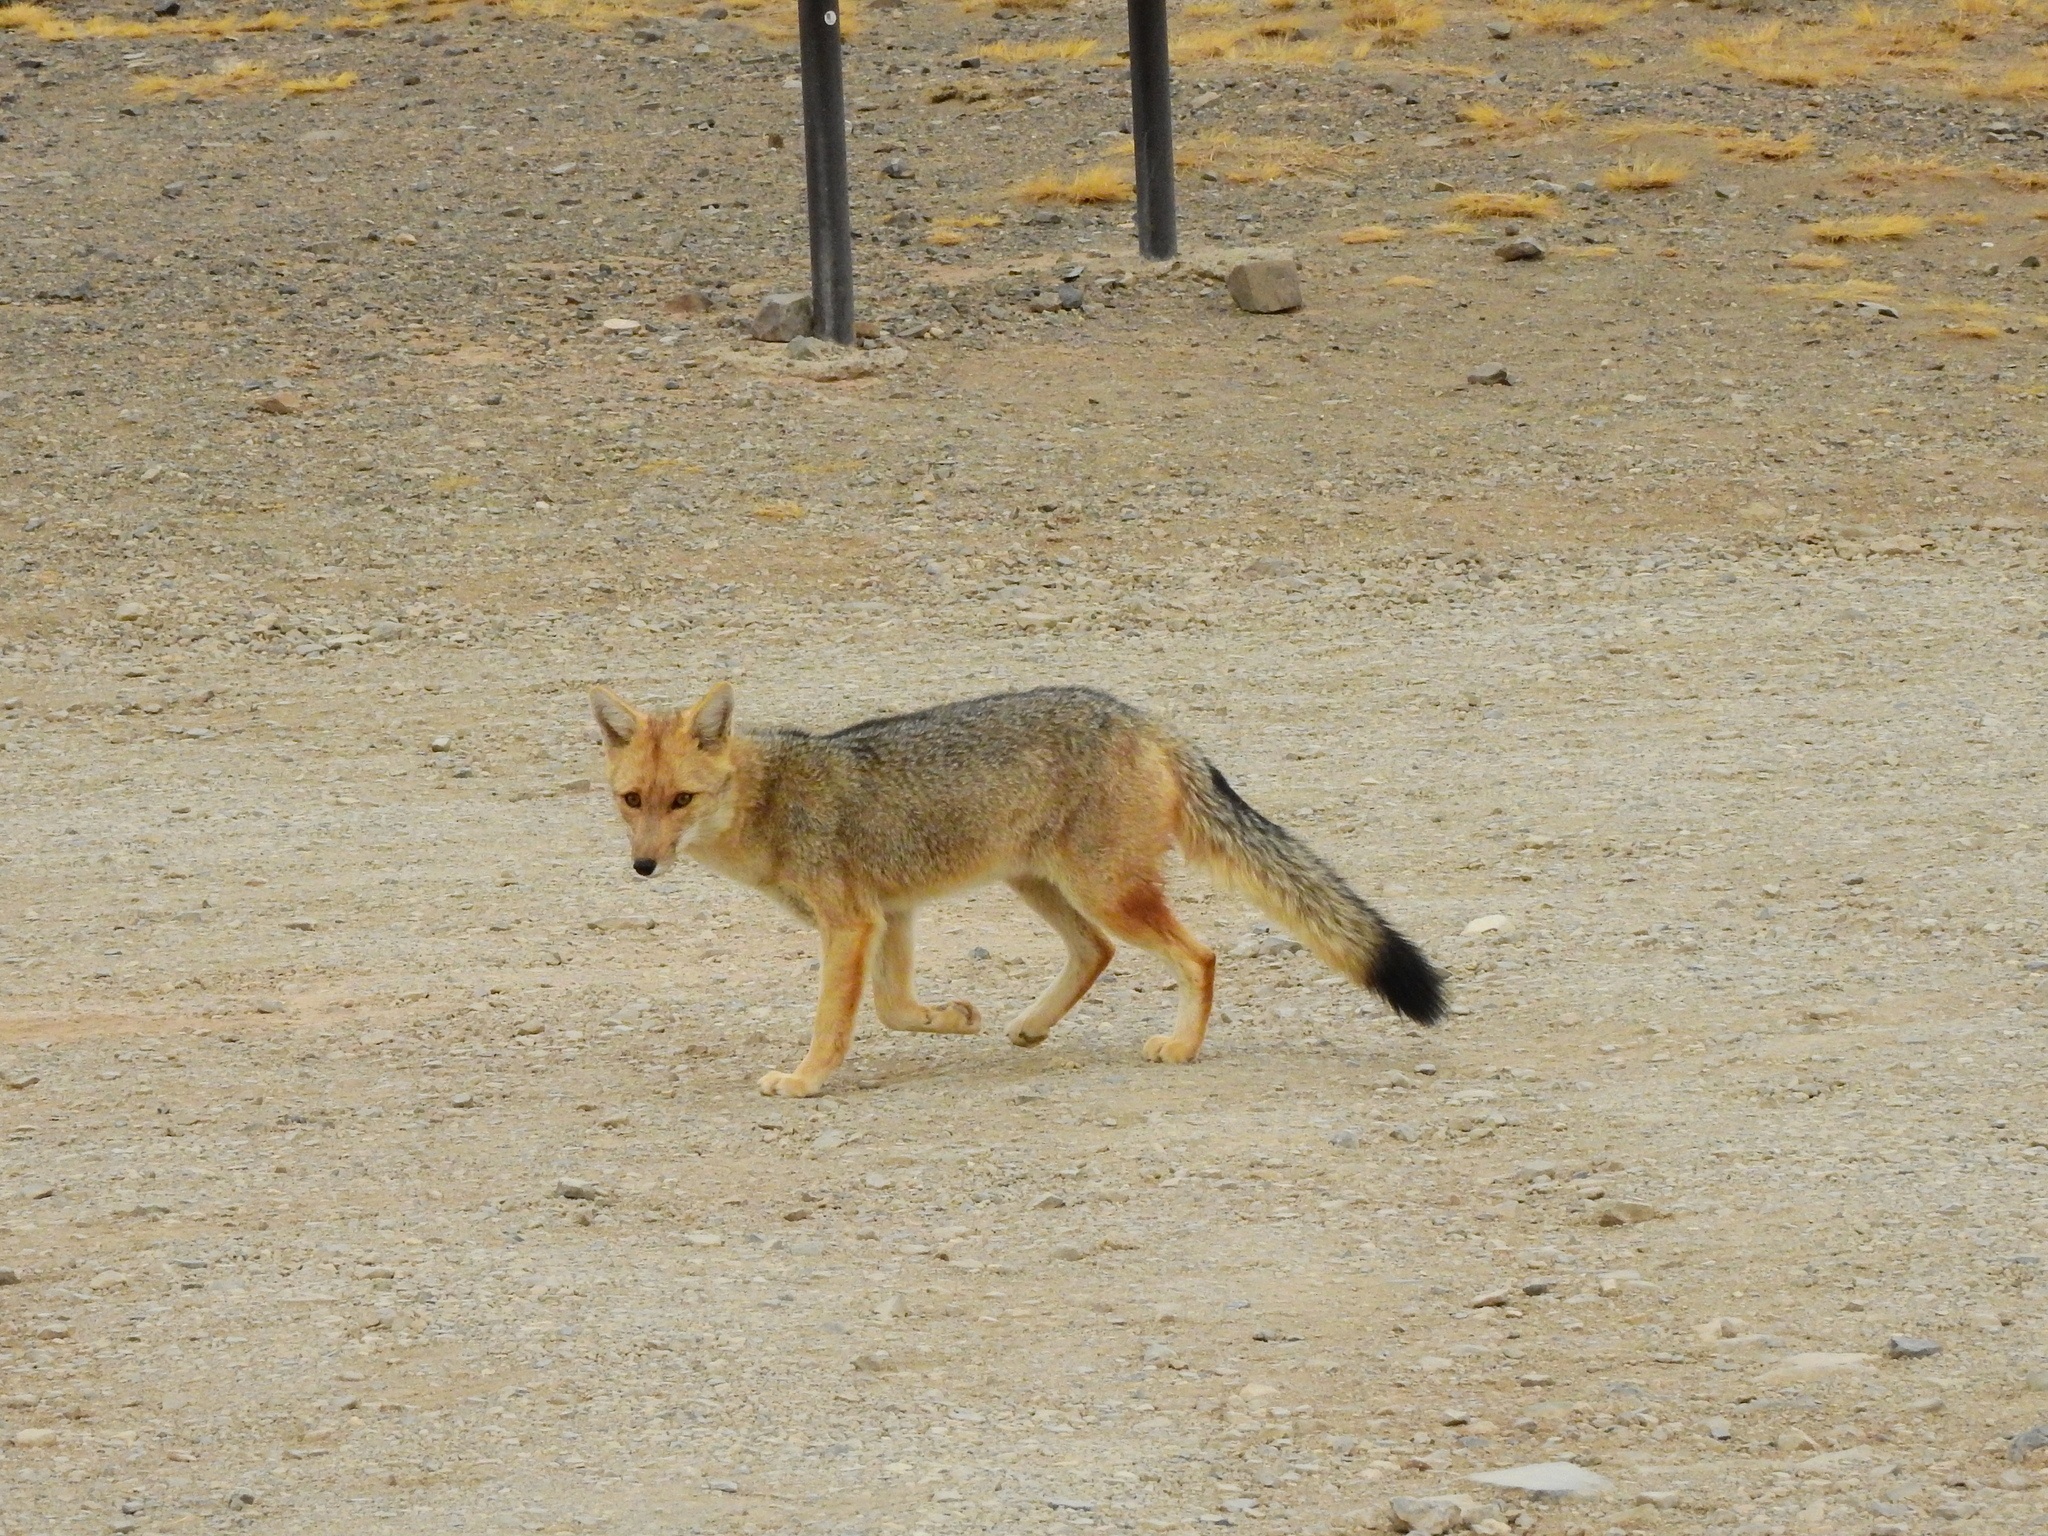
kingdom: Animalia
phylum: Chordata
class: Mammalia
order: Carnivora
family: Canidae
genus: Lycalopex
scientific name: Lycalopex culpaeus
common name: Culpeo
